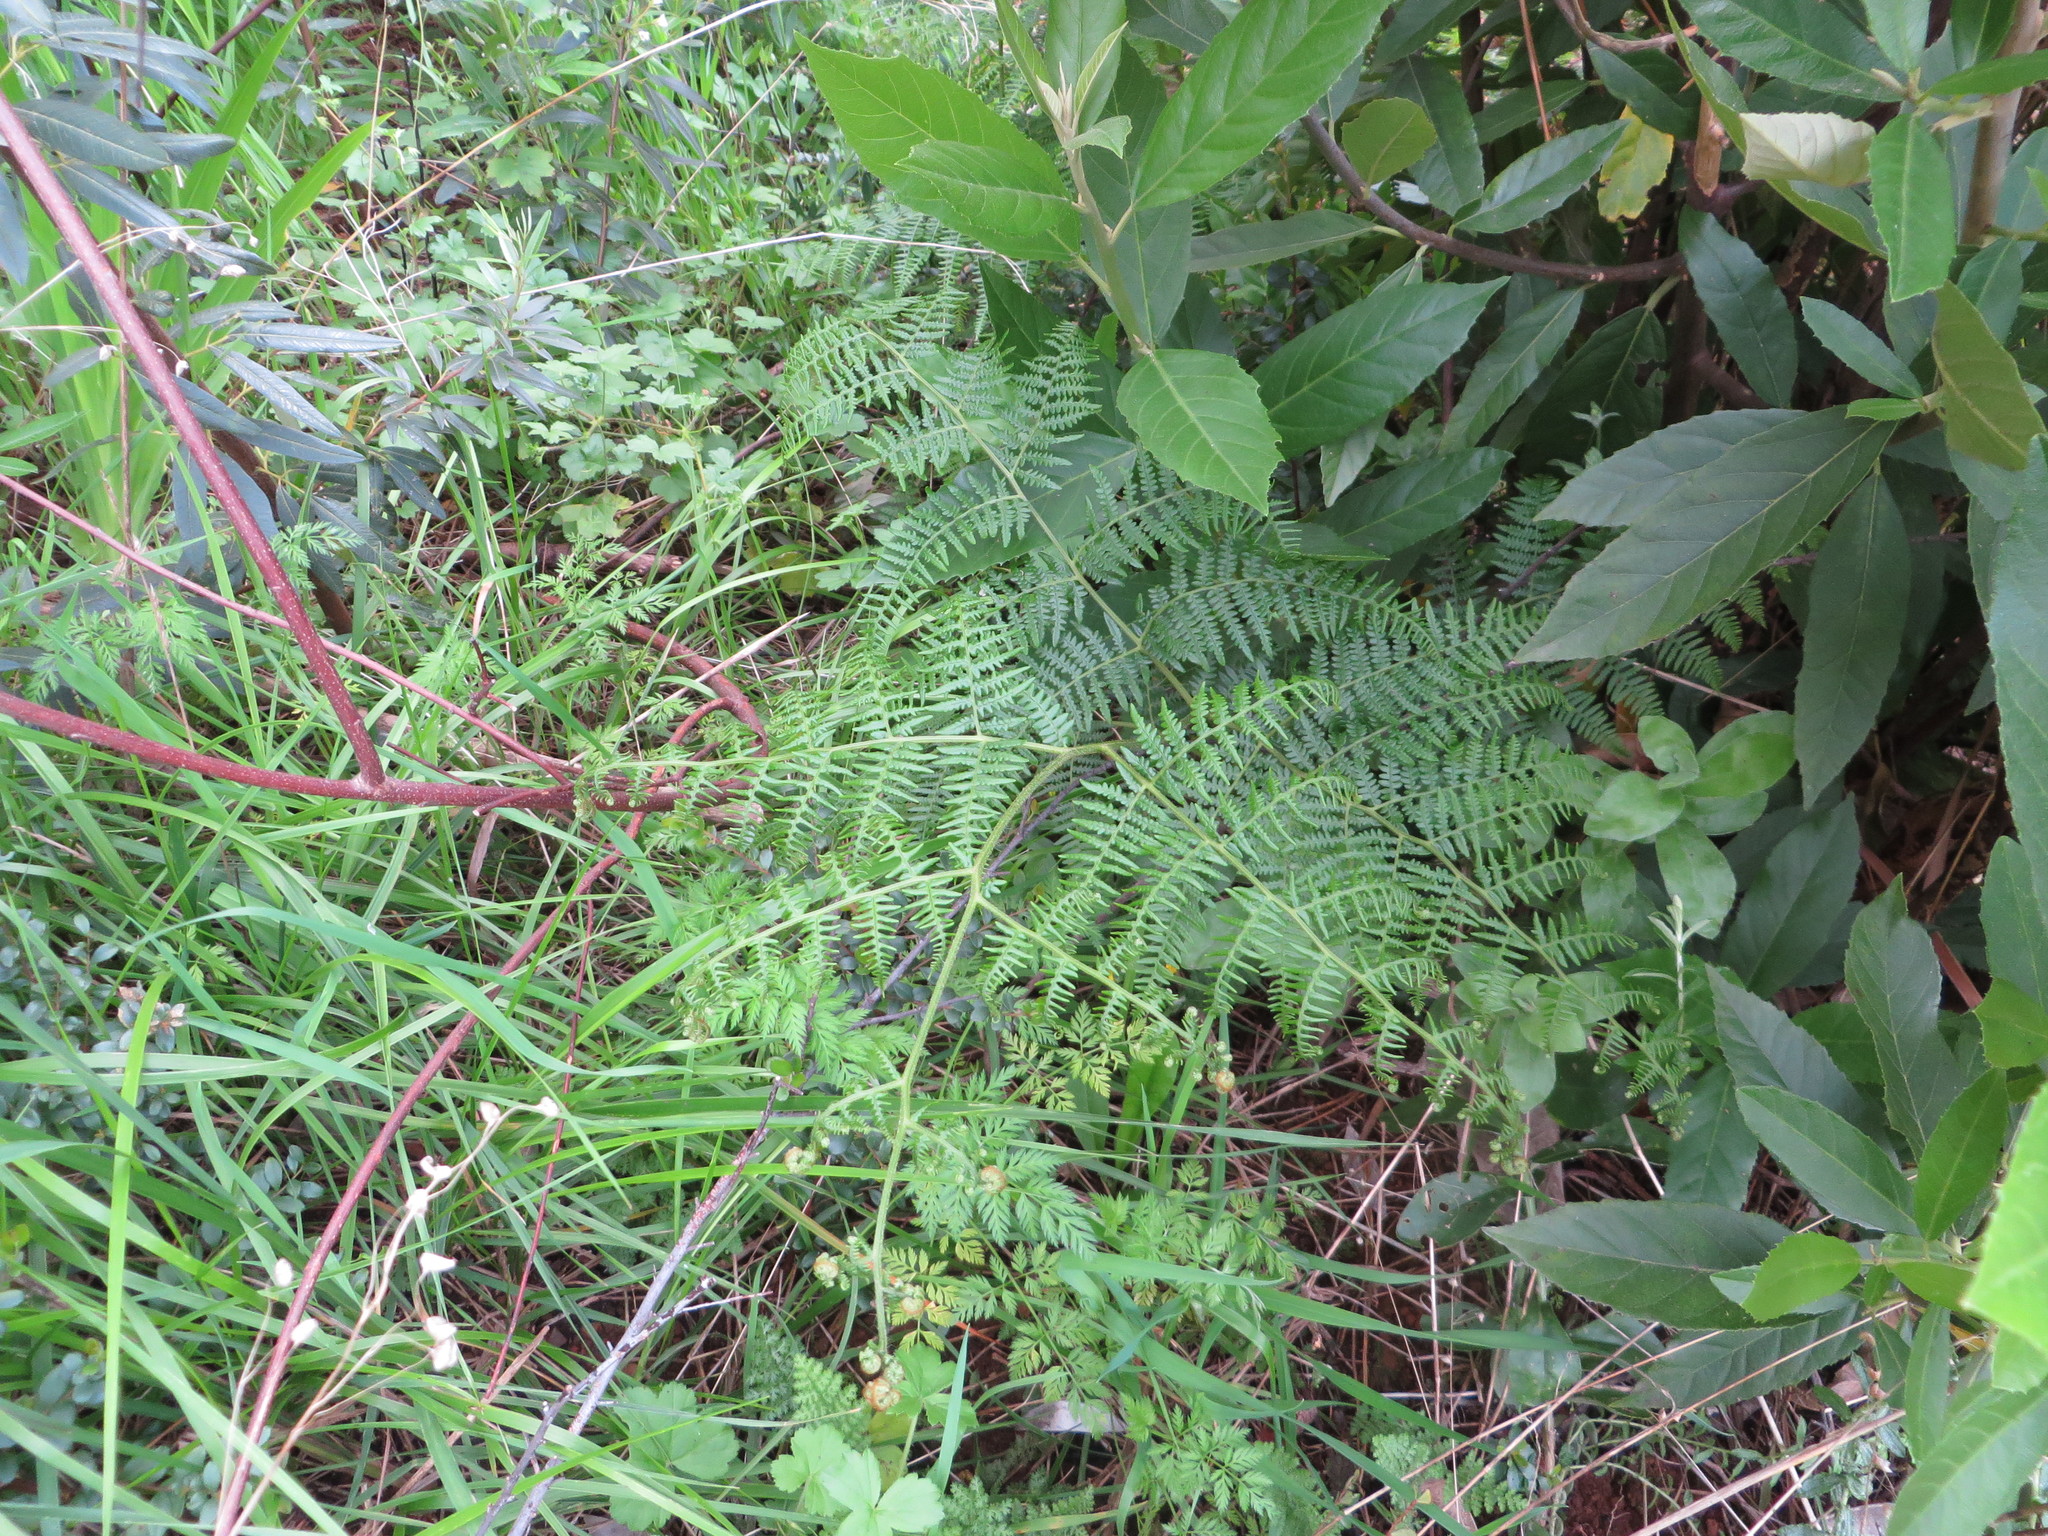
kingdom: Plantae
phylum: Tracheophyta
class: Polypodiopsida
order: Polypodiales
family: Dennstaedtiaceae
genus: Pteridium
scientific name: Pteridium aquilinum
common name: Bracken
